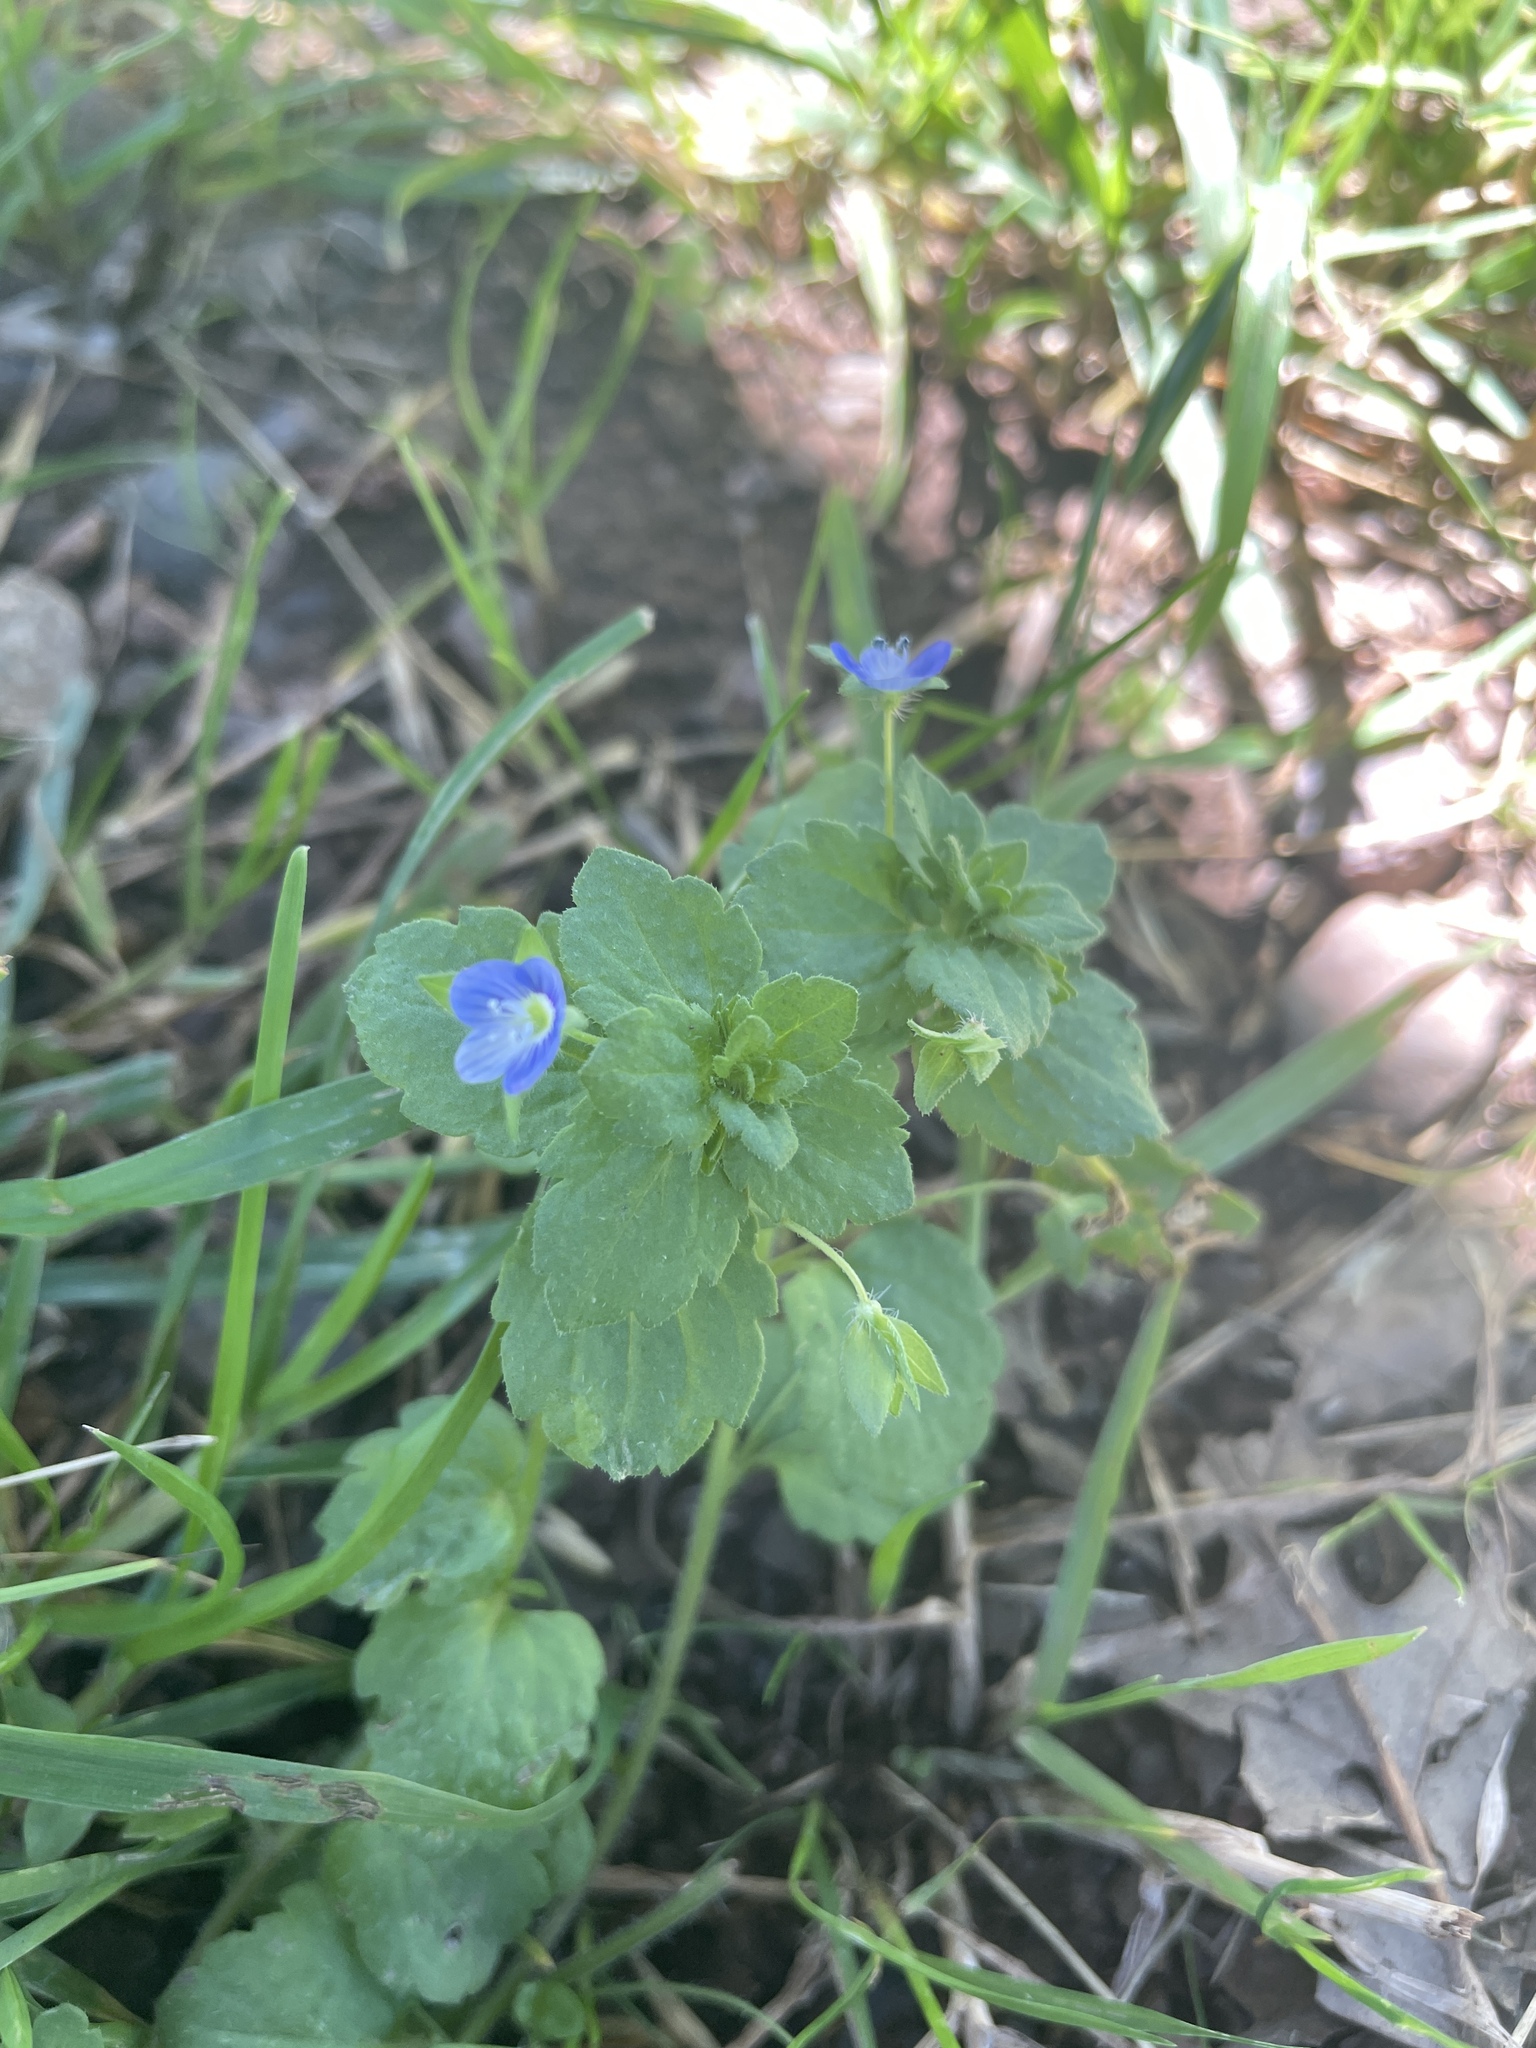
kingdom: Plantae
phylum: Tracheophyta
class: Magnoliopsida
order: Lamiales
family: Plantaginaceae
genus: Veronica
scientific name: Veronica persica
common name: Common field-speedwell
